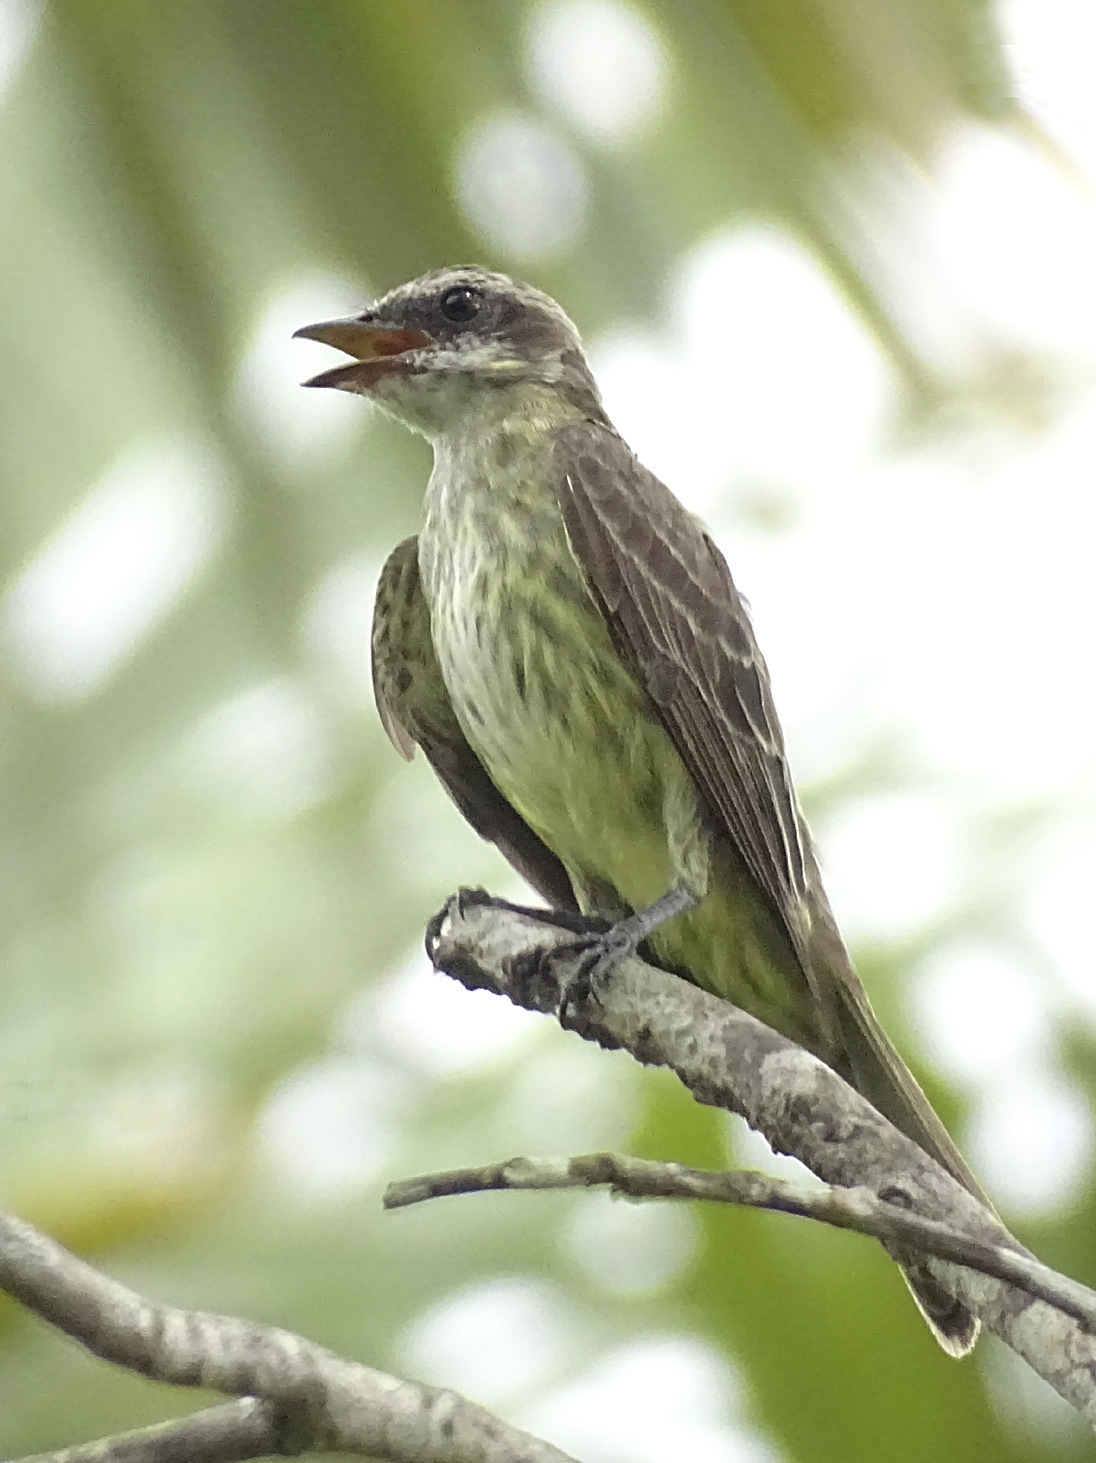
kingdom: Animalia
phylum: Chordata
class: Aves
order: Passeriformes
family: Tyrannidae
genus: Legatus
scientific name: Legatus leucophaius
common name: Piratic flycatcher
